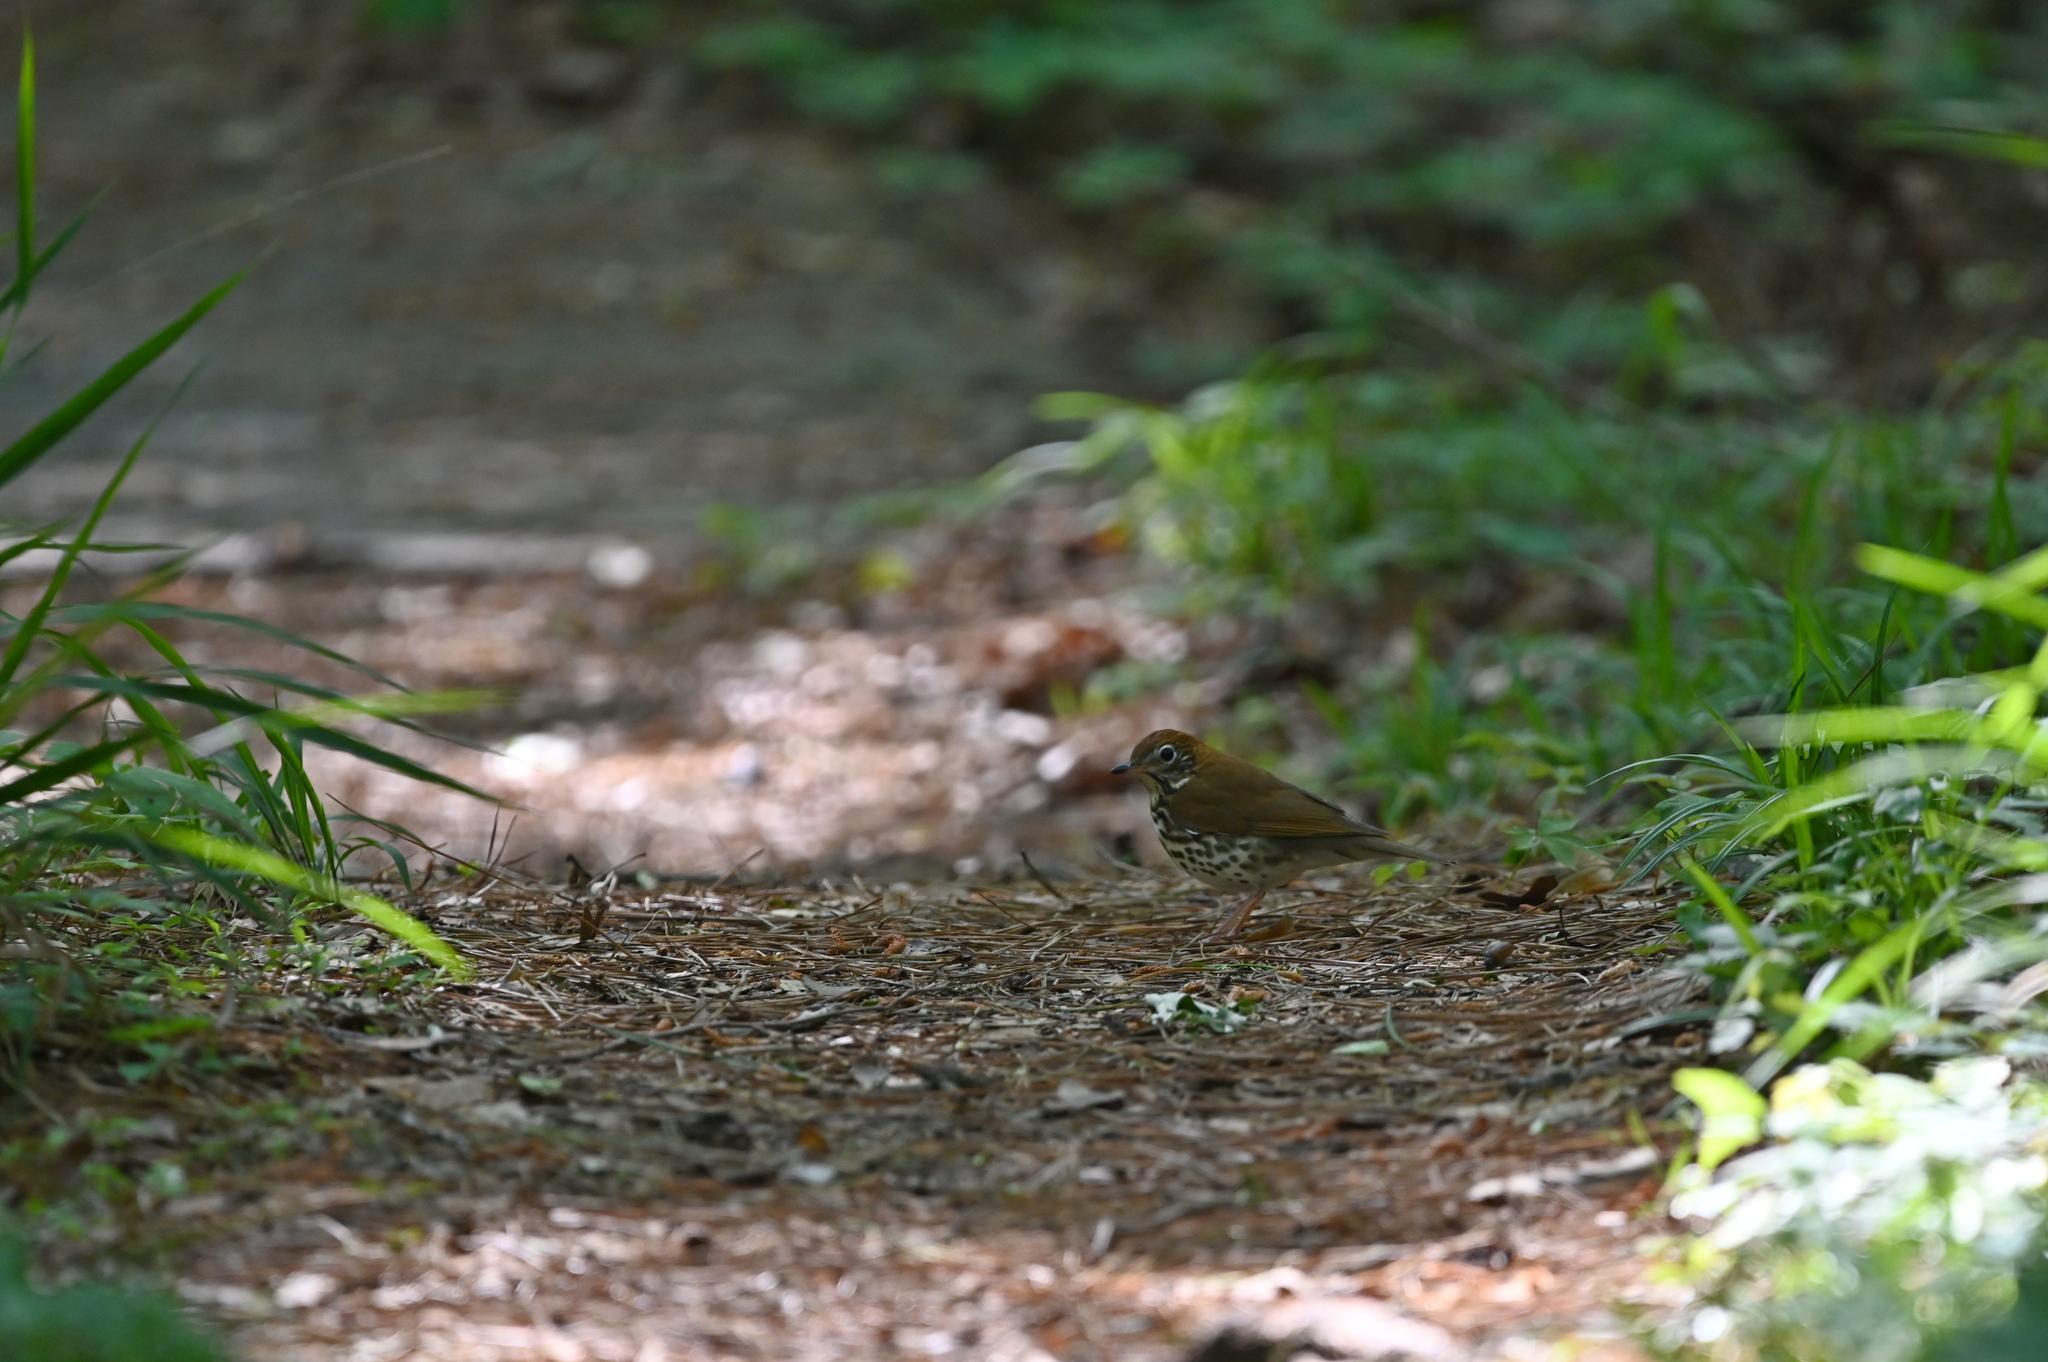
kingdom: Animalia
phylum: Chordata
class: Aves
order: Passeriformes
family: Turdidae
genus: Hylocichla
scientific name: Hylocichla mustelina
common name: Wood thrush
